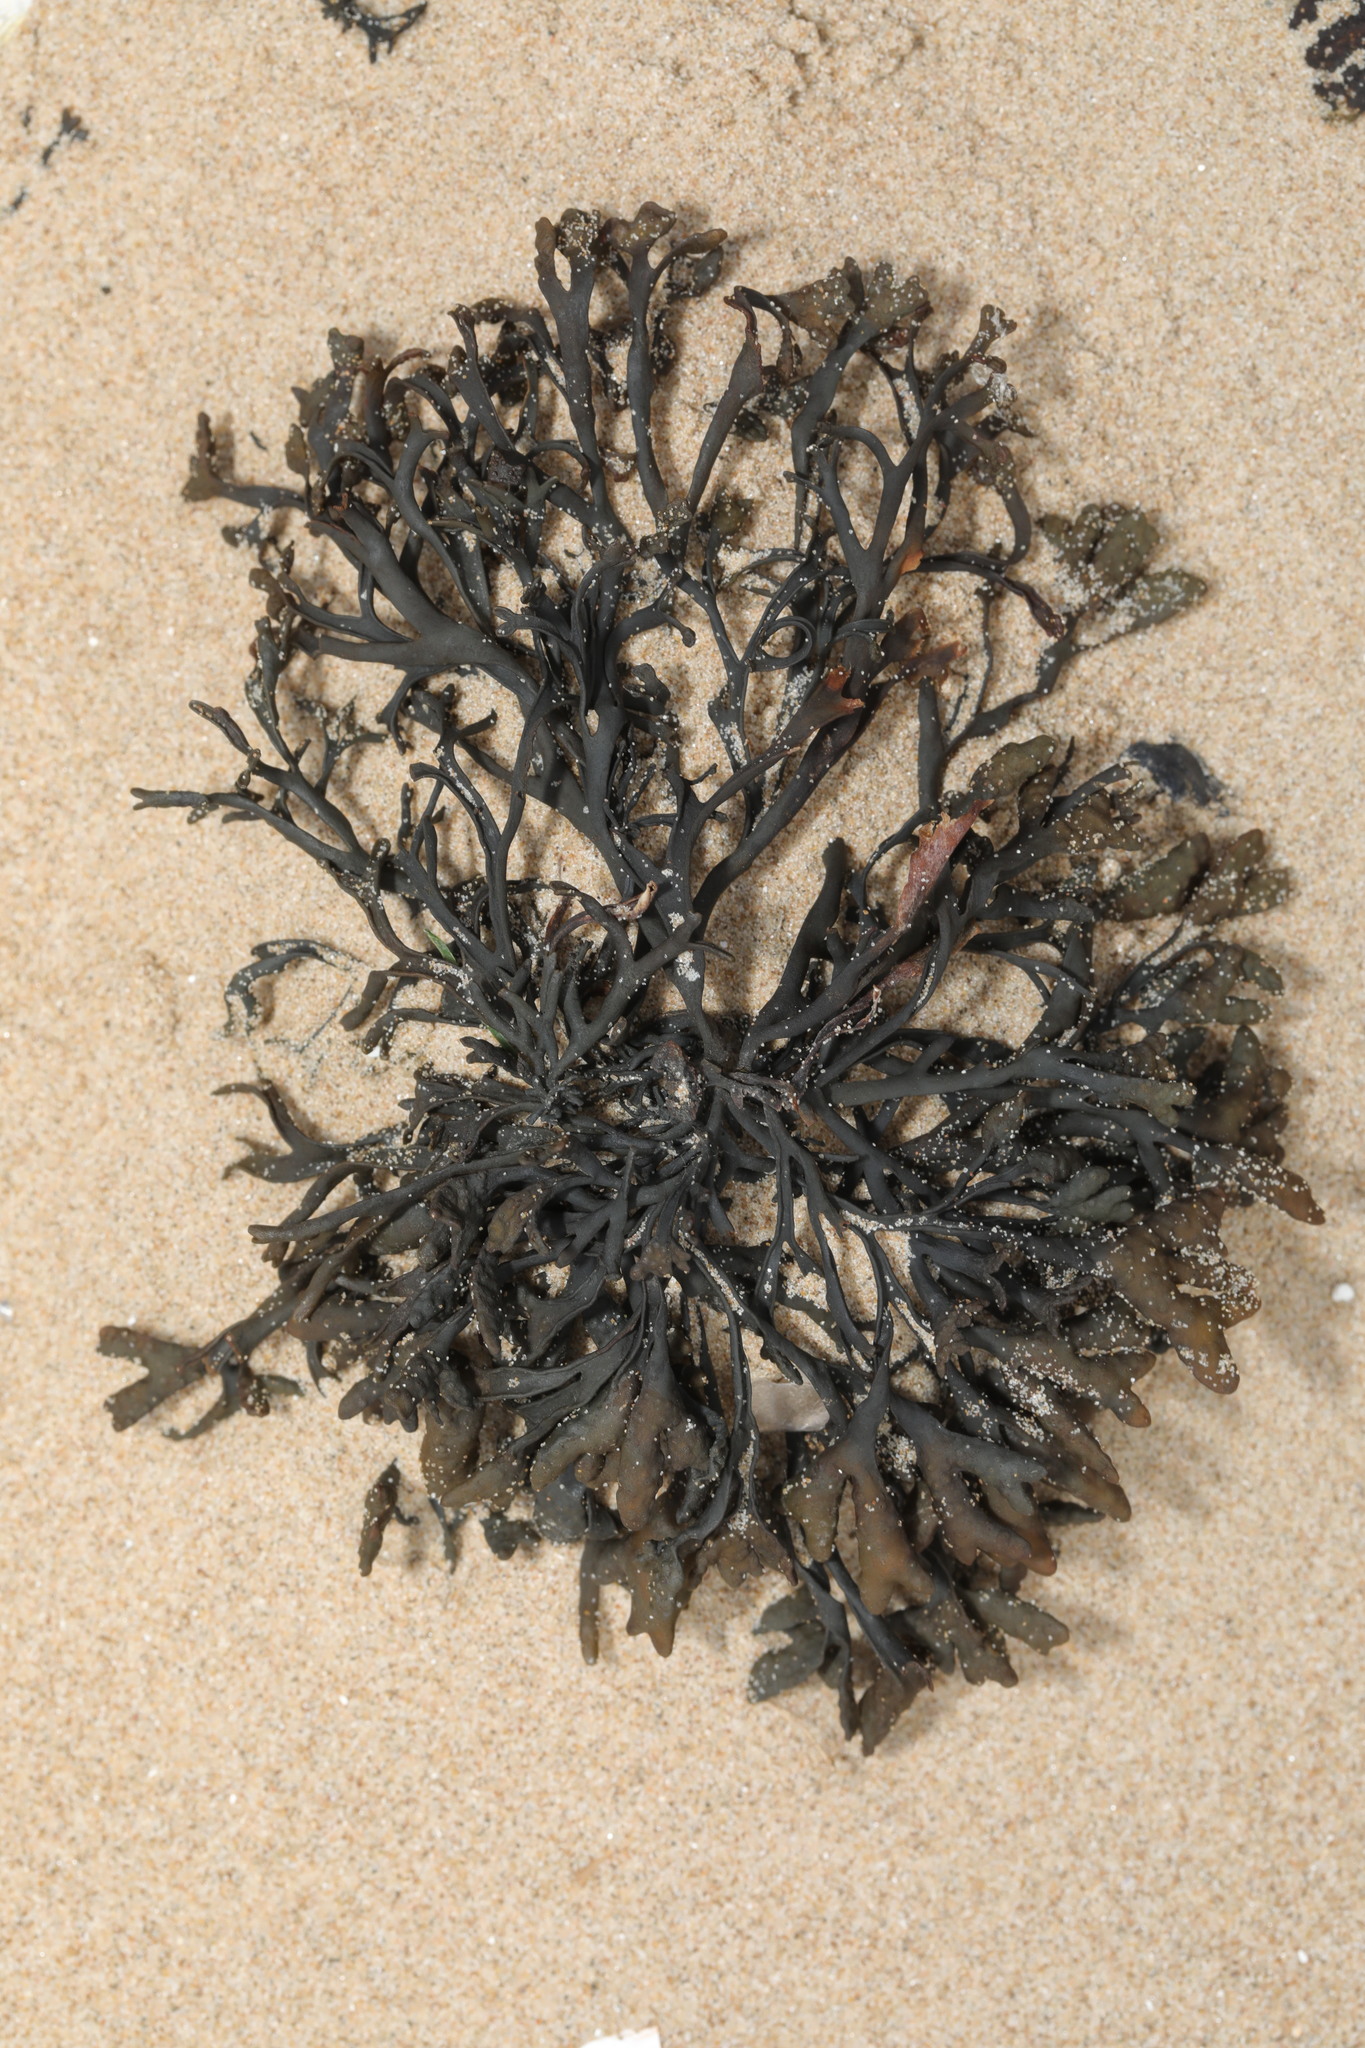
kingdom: Chromista
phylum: Ochrophyta
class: Phaeophyceae
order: Fucales
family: Fucaceae
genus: Pelvetia
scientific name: Pelvetia canaliculata
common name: Channelled wrack
